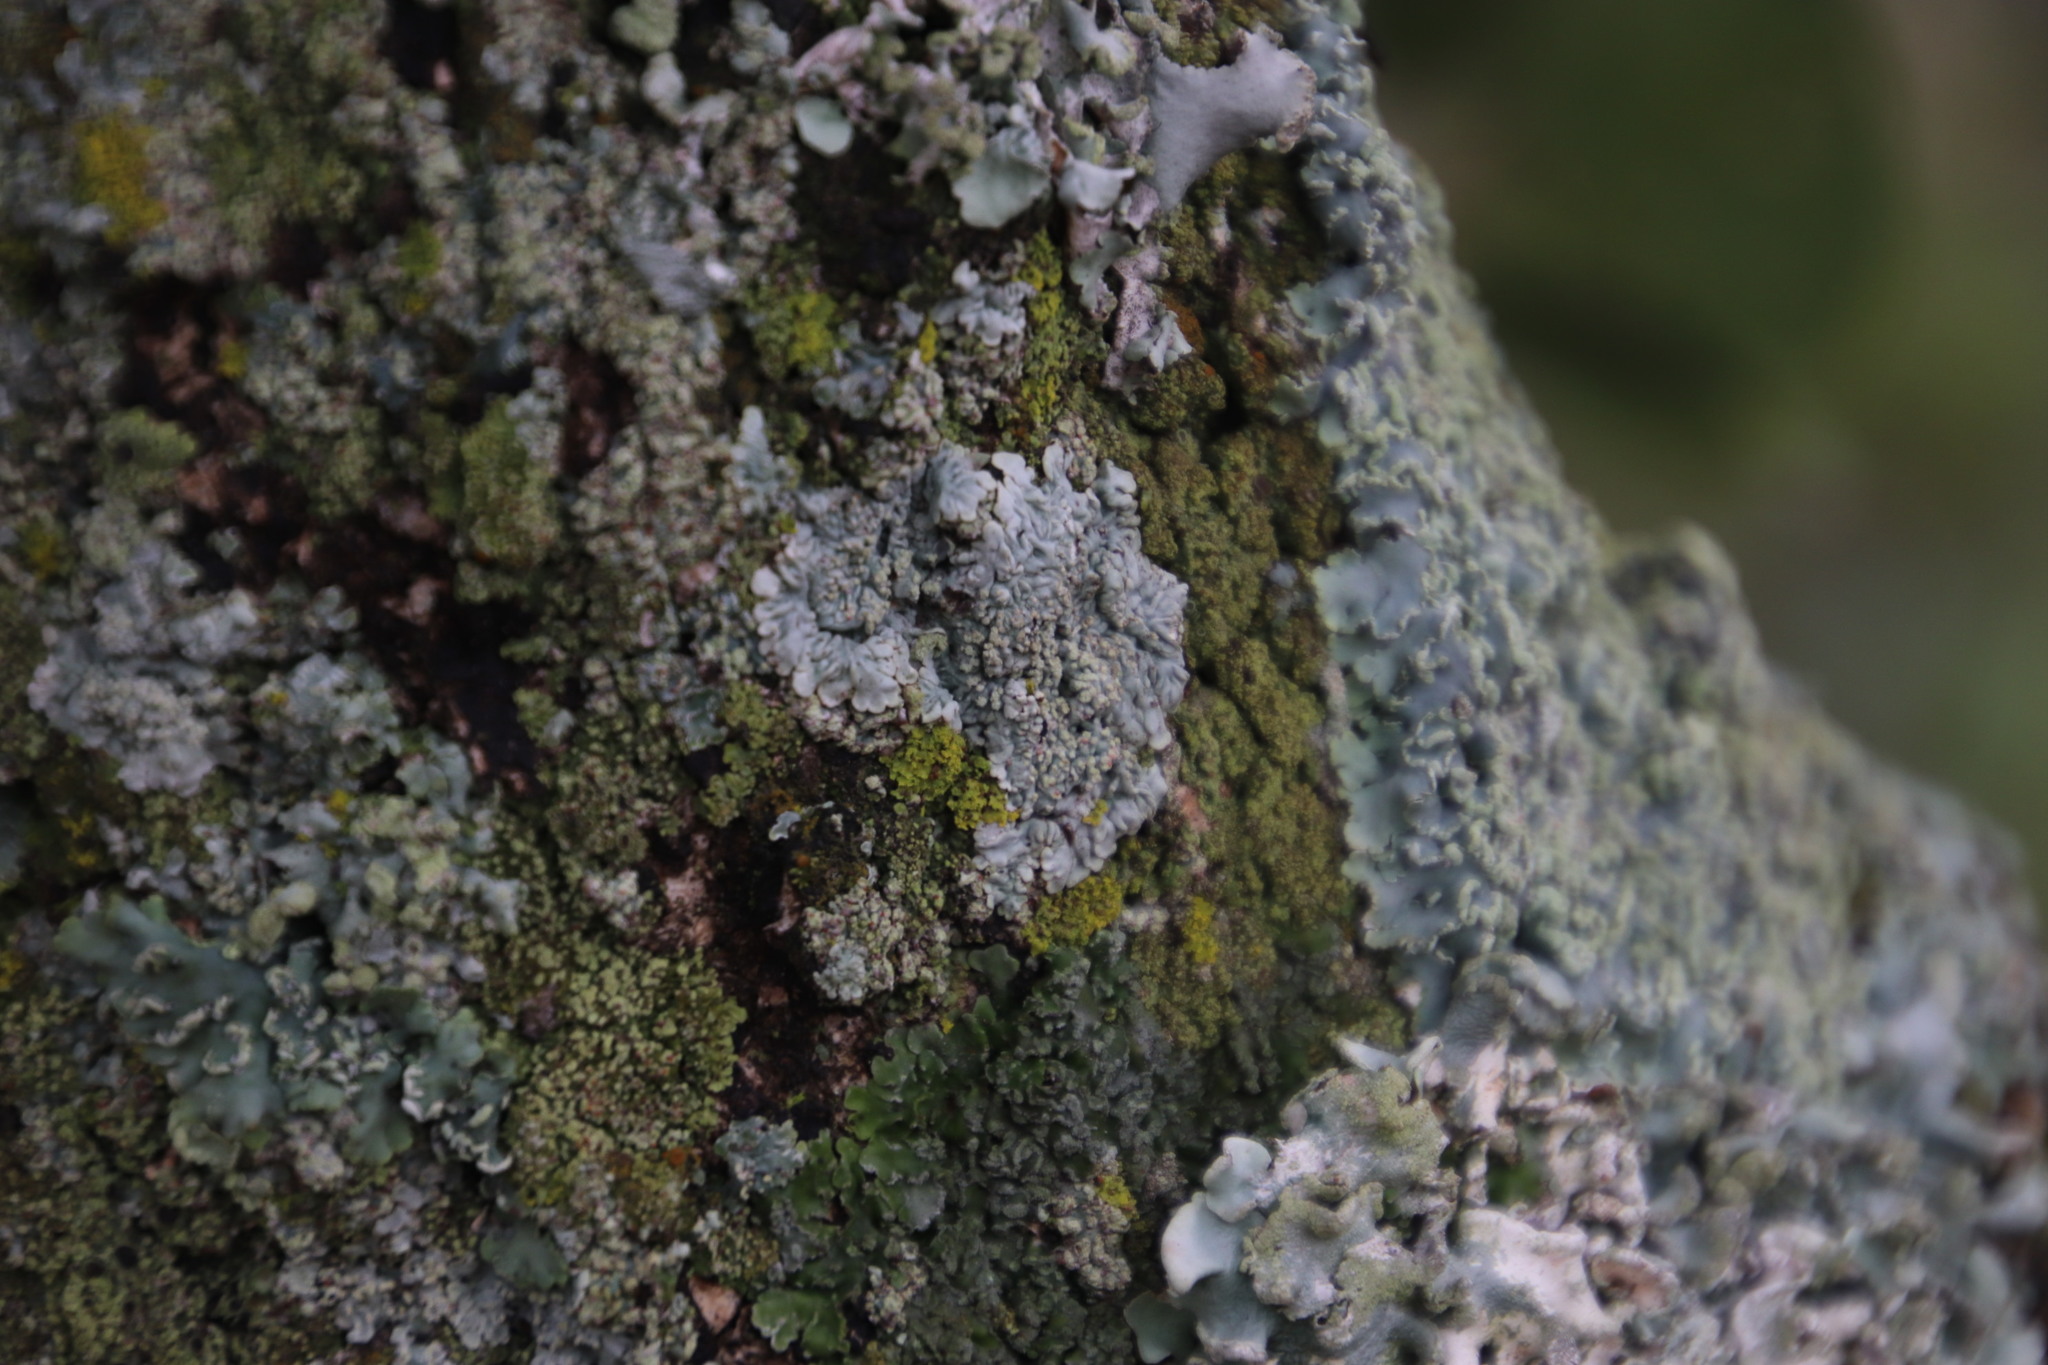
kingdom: Fungi
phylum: Ascomycota
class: Lecanoromycetes
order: Caliciales
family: Physciaceae
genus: Poeltonia
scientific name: Poeltonia grisea
